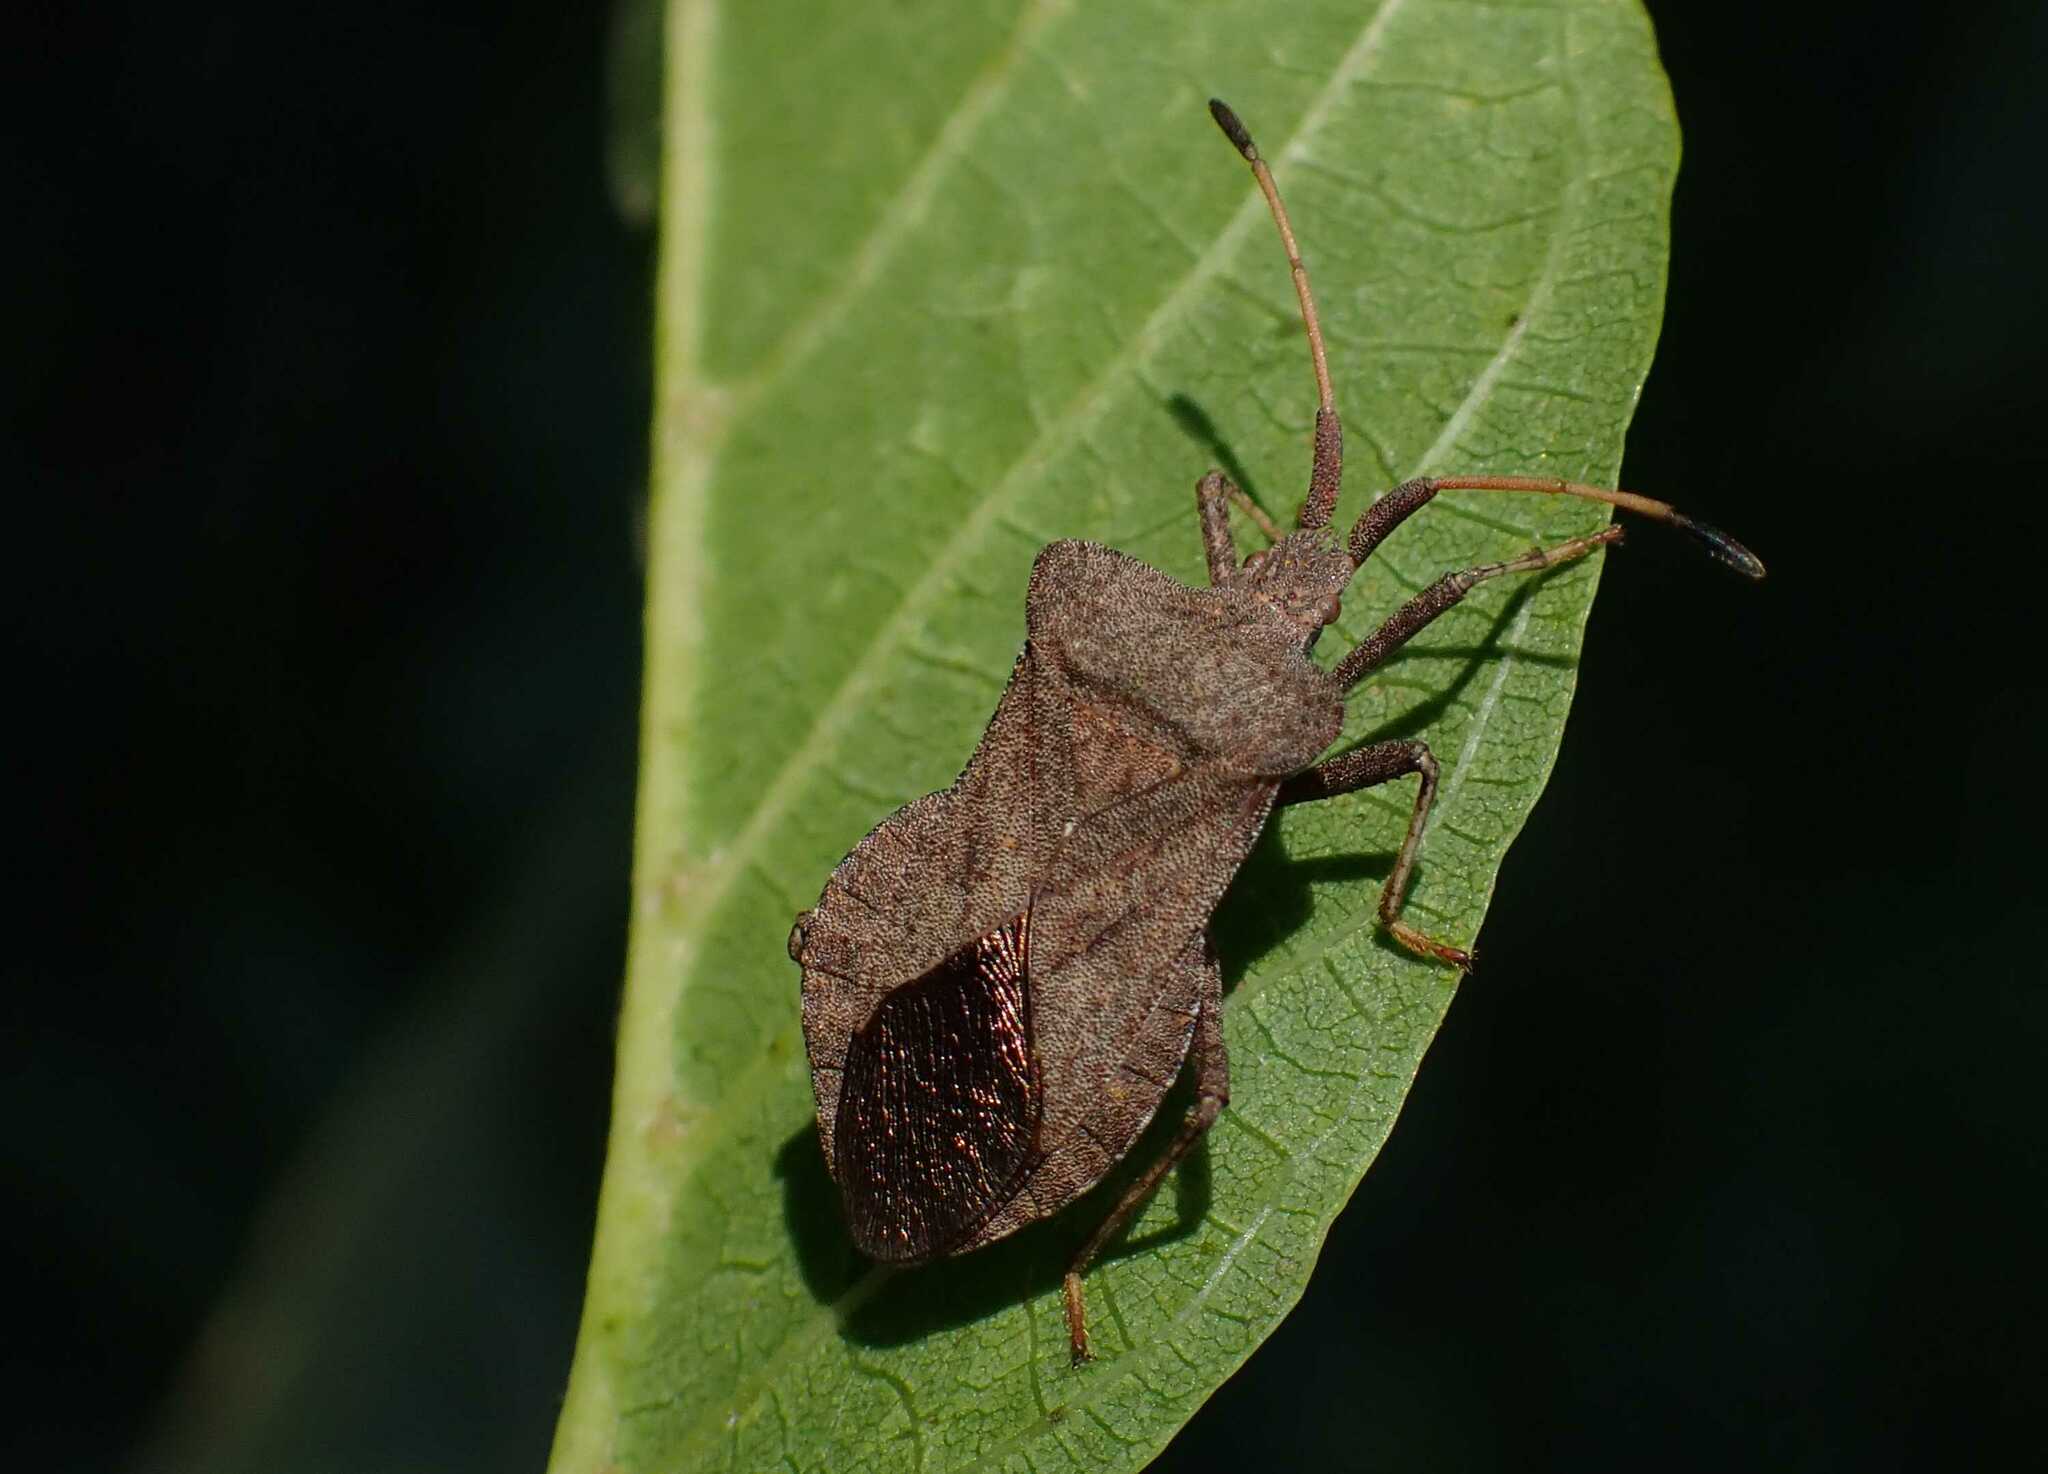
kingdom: Animalia
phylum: Arthropoda
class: Insecta
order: Hemiptera
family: Coreidae
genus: Coreus
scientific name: Coreus marginatus
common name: Dock bug
